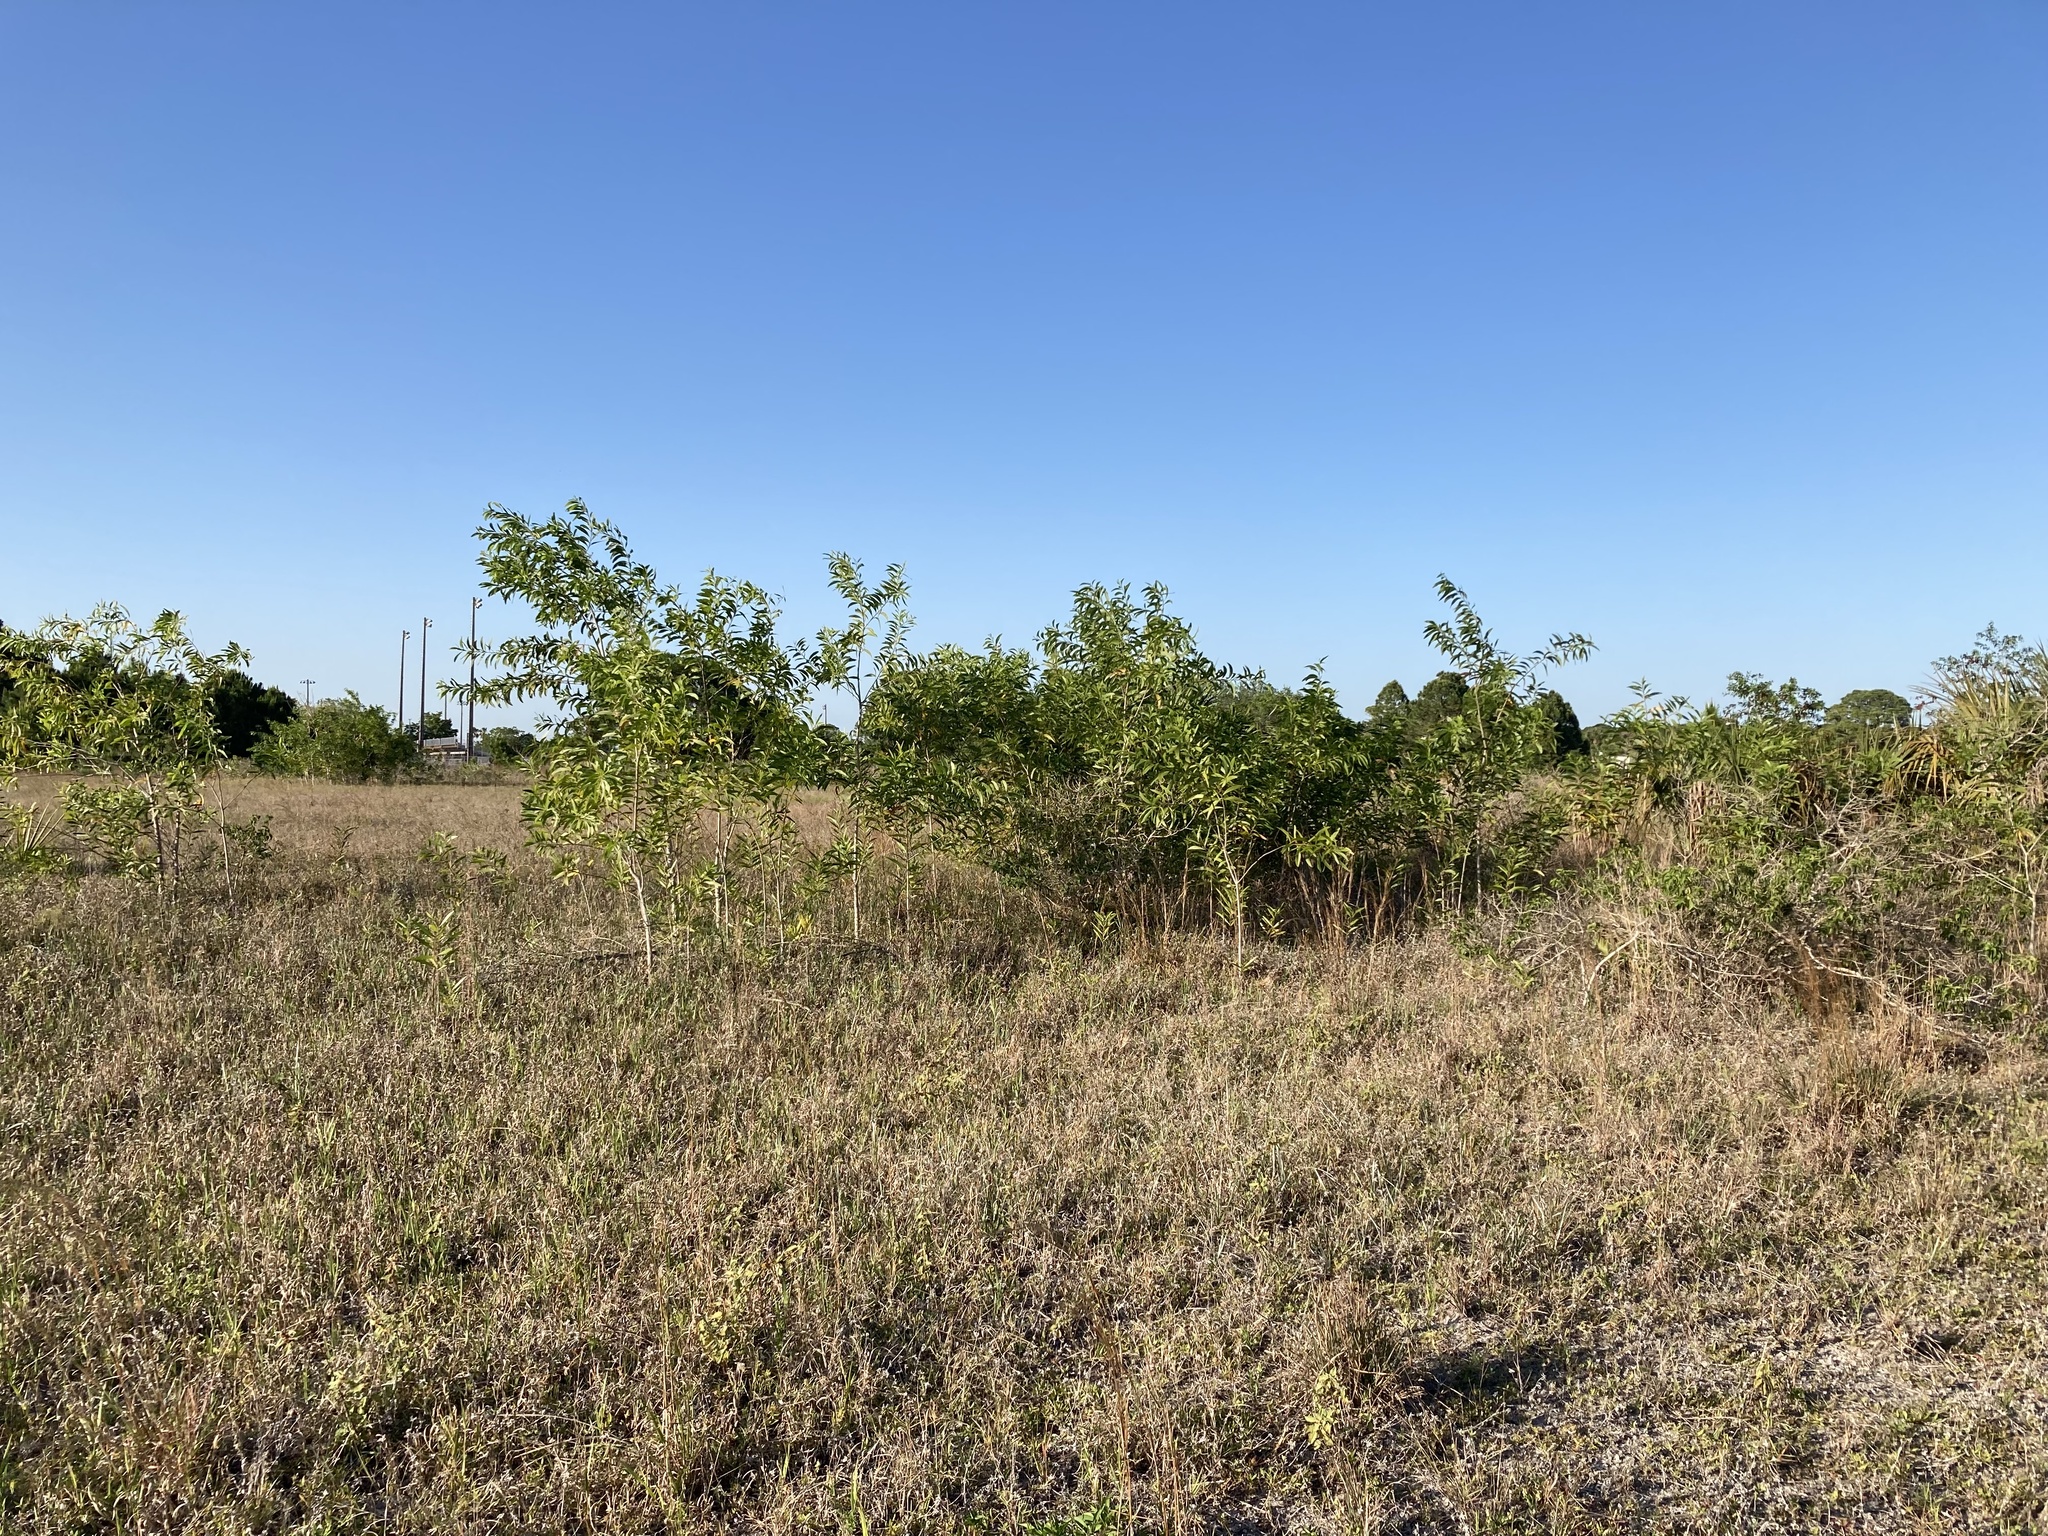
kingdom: Plantae
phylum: Tracheophyta
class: Magnoliopsida
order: Fabales
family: Fabaceae
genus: Acacia
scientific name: Acacia auriculiformis
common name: Earleaf acacia
